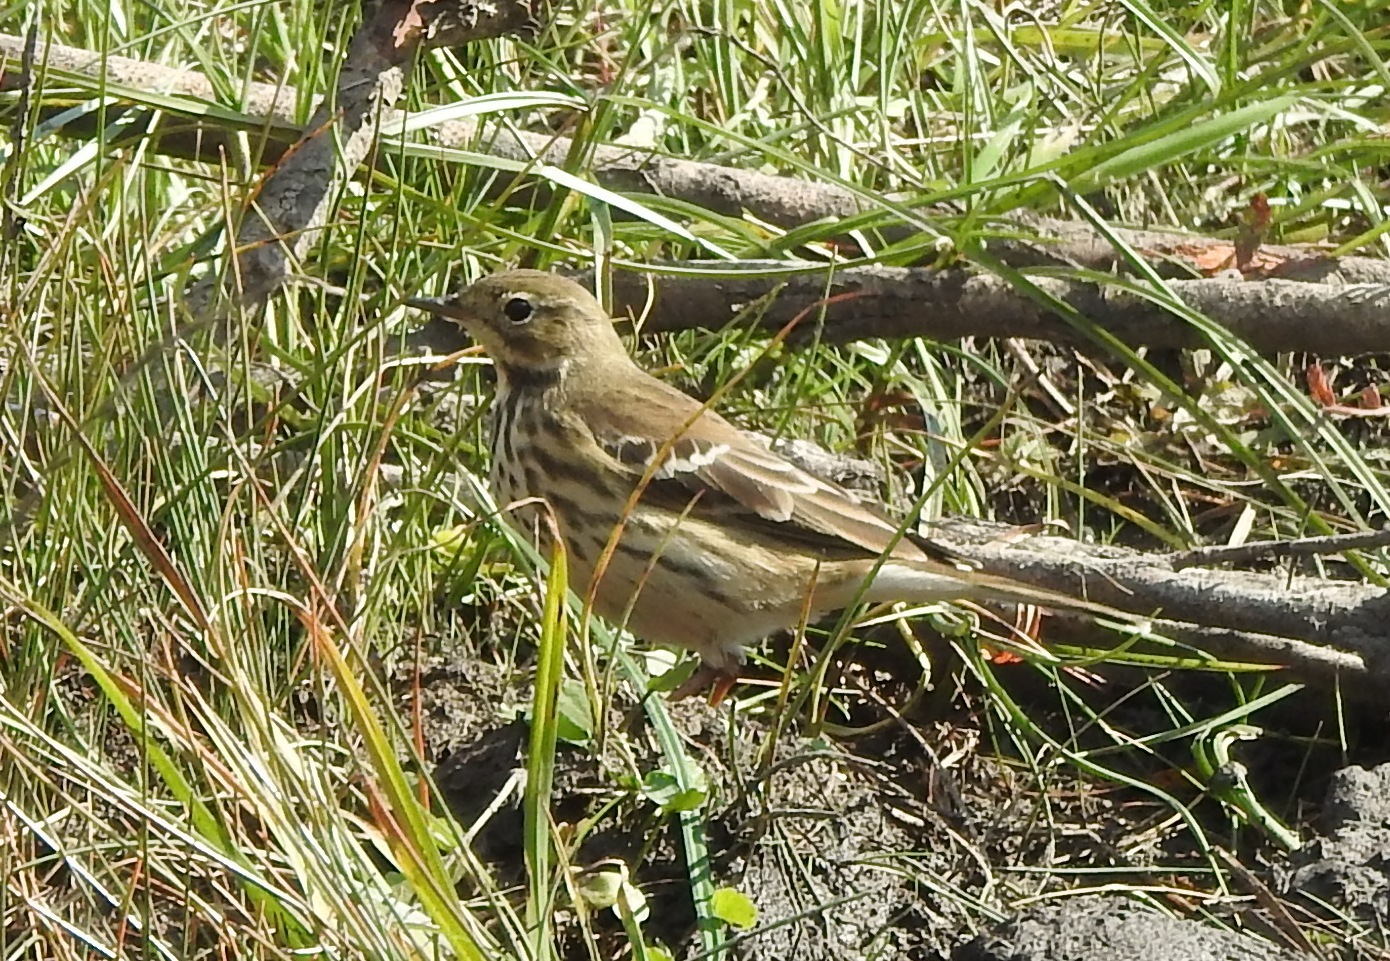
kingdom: Animalia
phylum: Chordata
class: Aves
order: Passeriformes
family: Motacillidae
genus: Anthus
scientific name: Anthus rubescens
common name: Buff-bellied pipit
